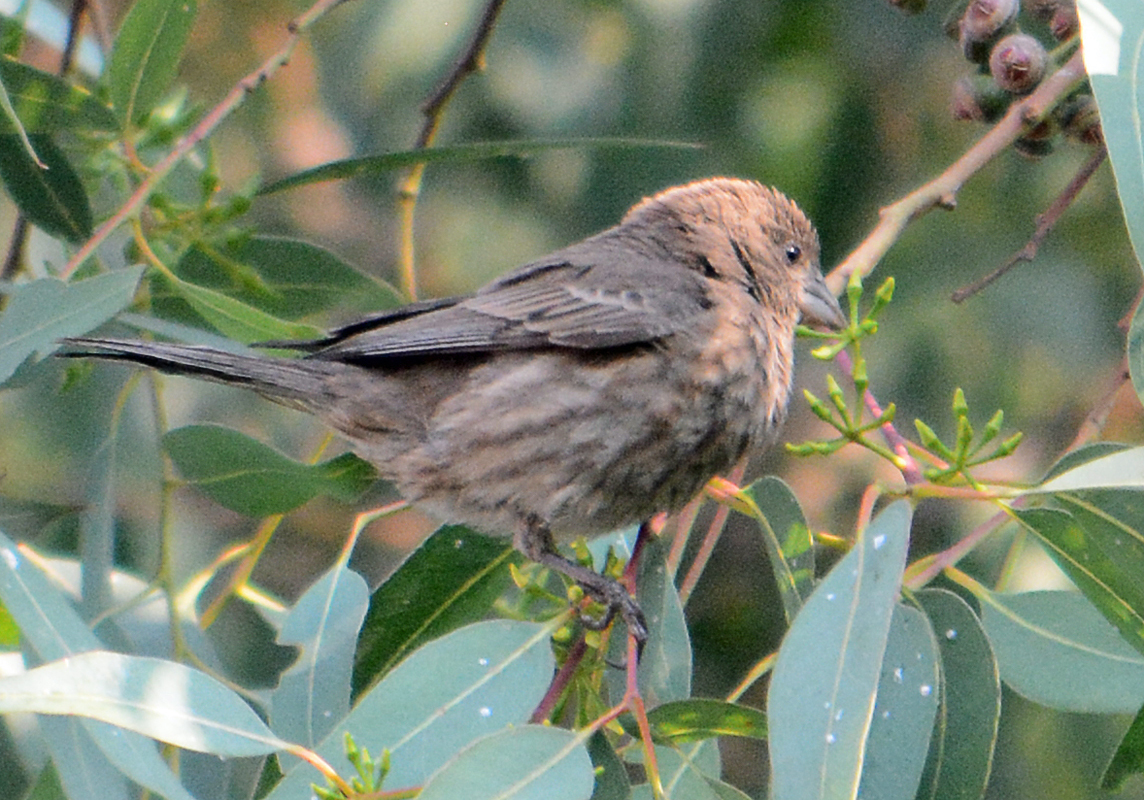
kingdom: Animalia
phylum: Chordata
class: Aves
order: Passeriformes
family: Fringillidae
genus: Haemorhous
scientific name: Haemorhous mexicanus
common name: House finch
